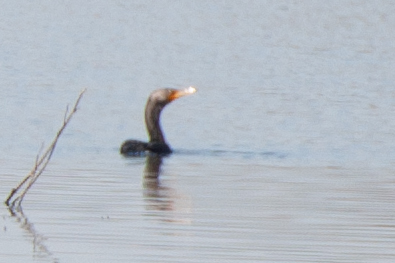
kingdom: Animalia
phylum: Chordata
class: Aves
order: Suliformes
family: Phalacrocoracidae
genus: Phalacrocorax
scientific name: Phalacrocorax auritus
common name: Double-crested cormorant
